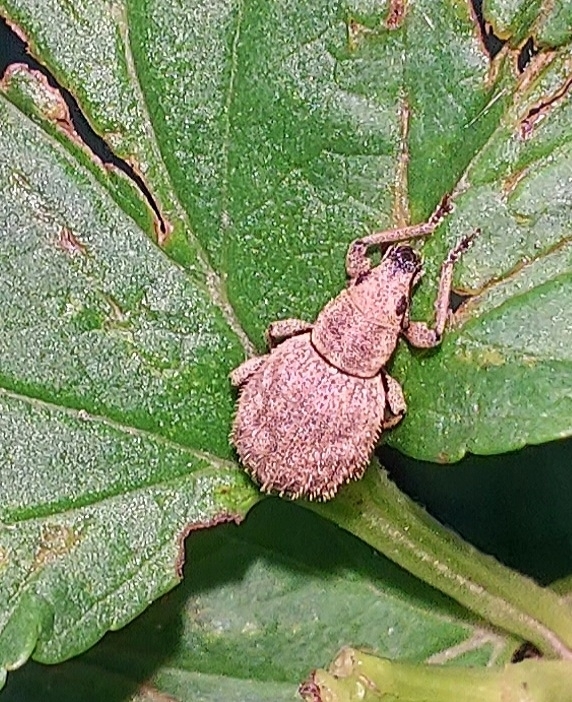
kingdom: Animalia
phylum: Arthropoda
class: Insecta
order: Coleoptera
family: Curculionidae
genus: Sciaphilus
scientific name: Sciaphilus asperatus
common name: Weevil
